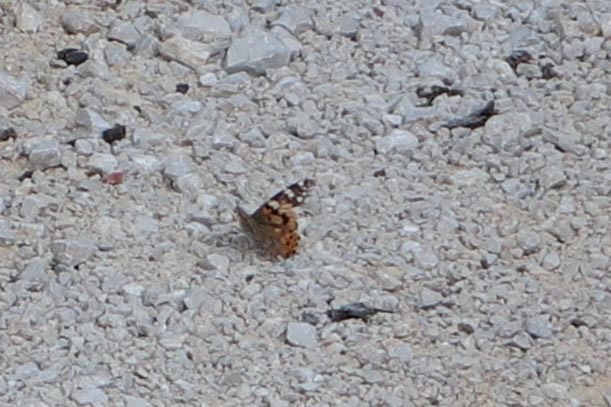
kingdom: Animalia
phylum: Arthropoda
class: Insecta
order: Lepidoptera
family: Nymphalidae
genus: Vanessa
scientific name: Vanessa cardui
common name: Painted lady
